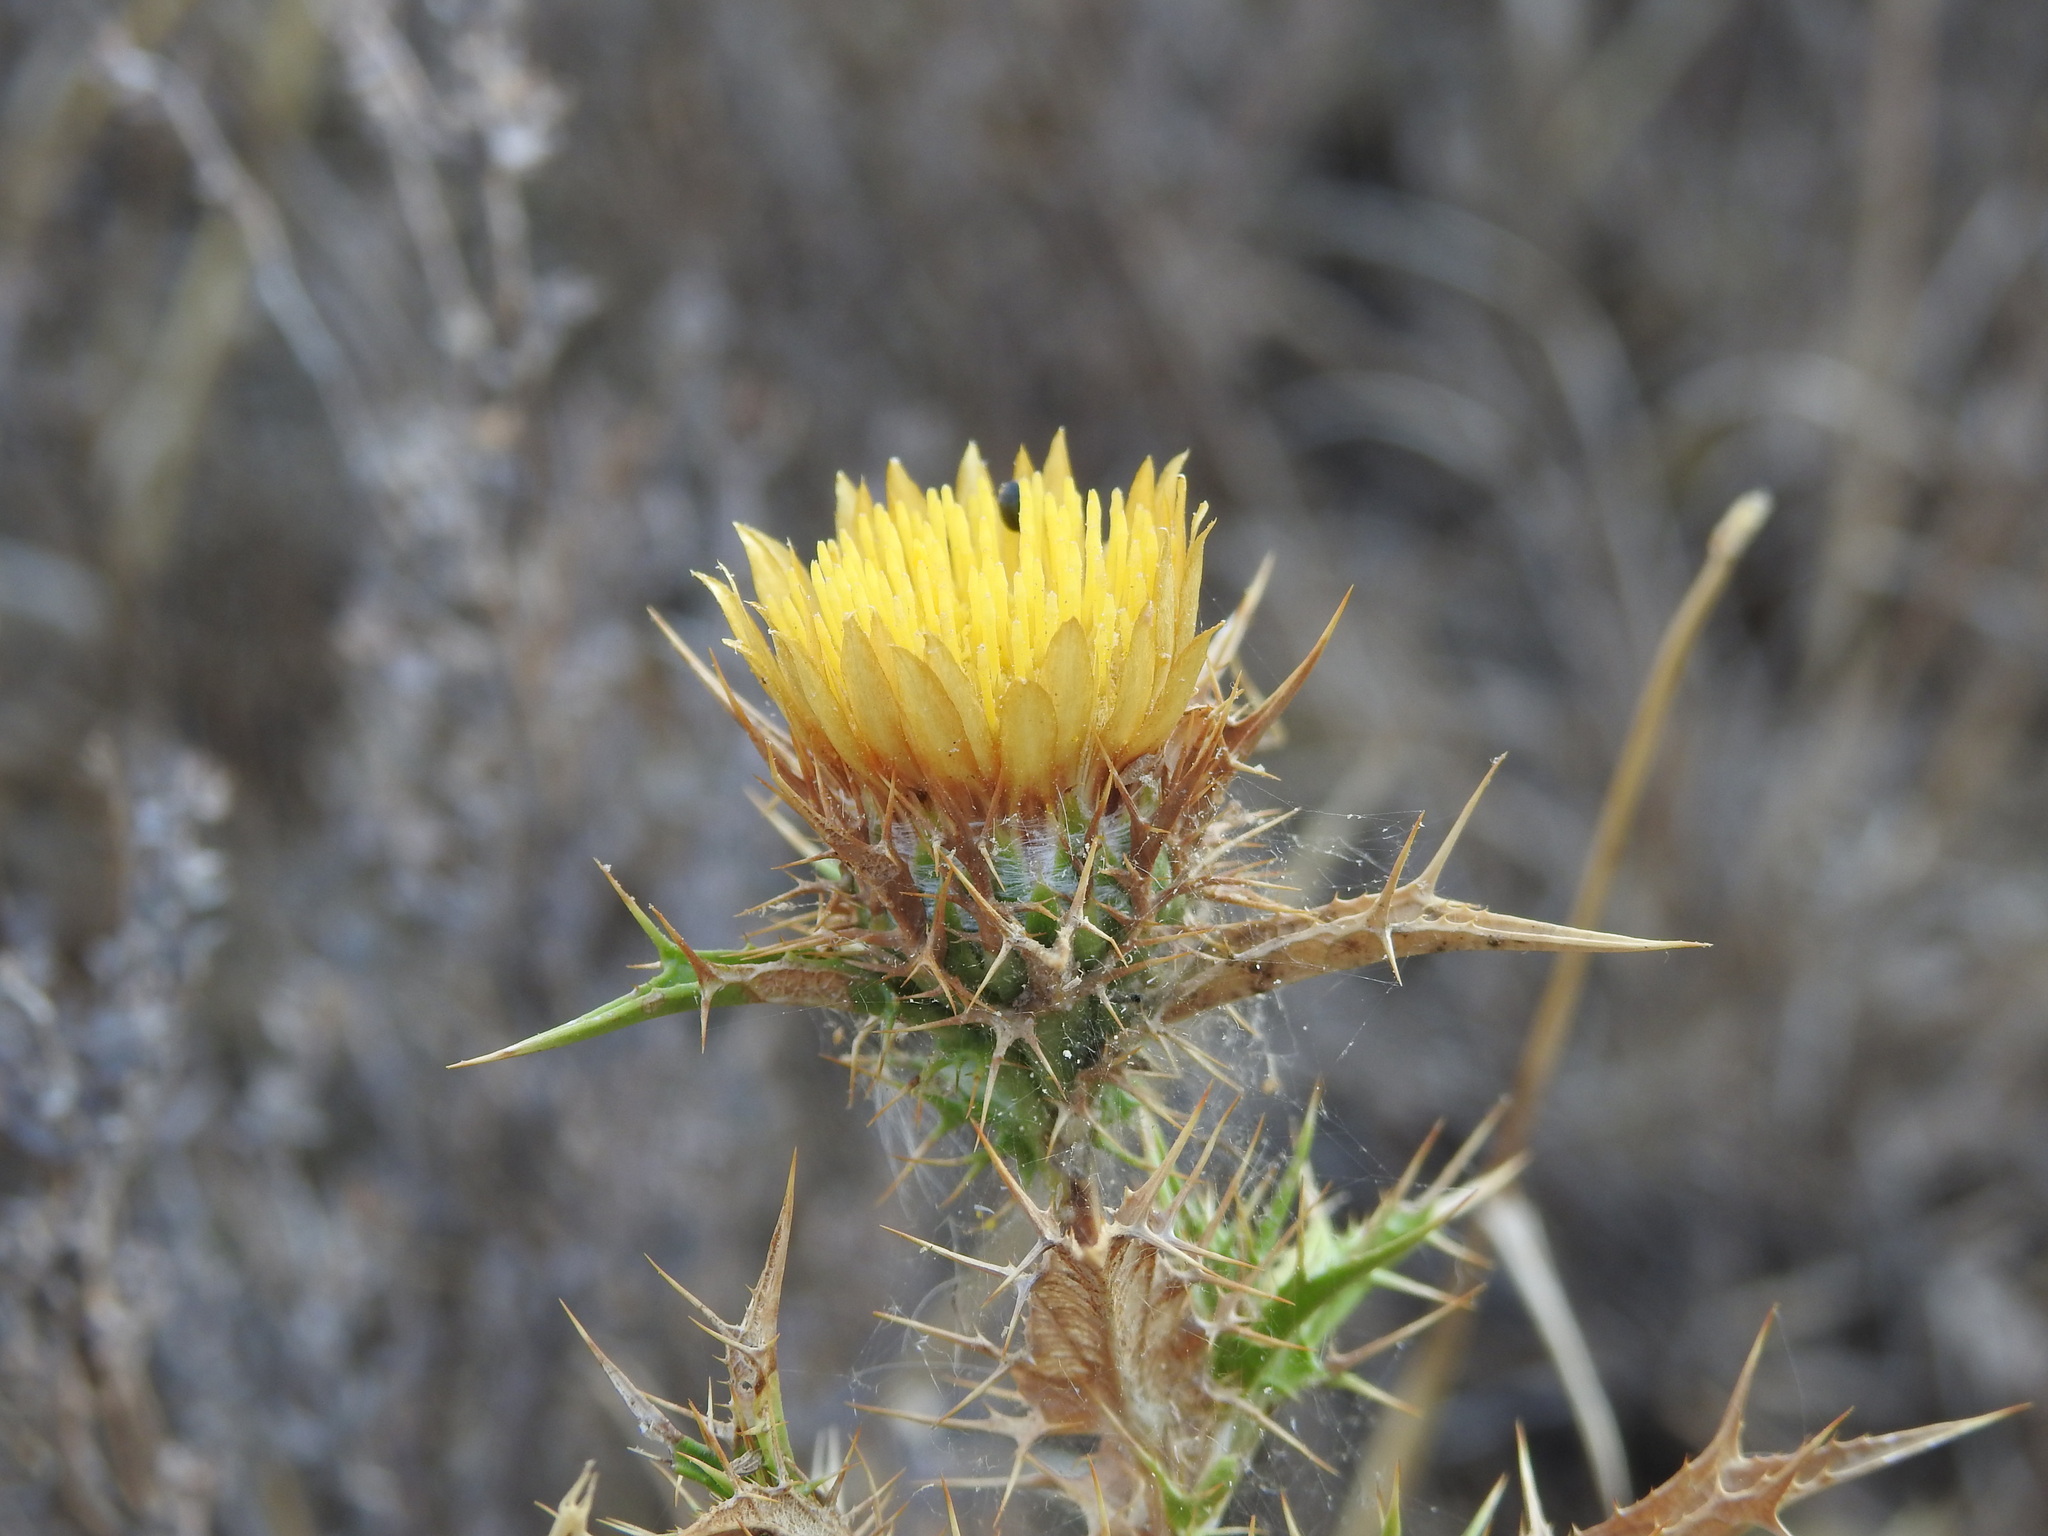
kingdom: Plantae
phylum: Tracheophyta
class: Magnoliopsida
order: Asterales
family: Asteraceae
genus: Carlina
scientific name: Carlina hispanica
